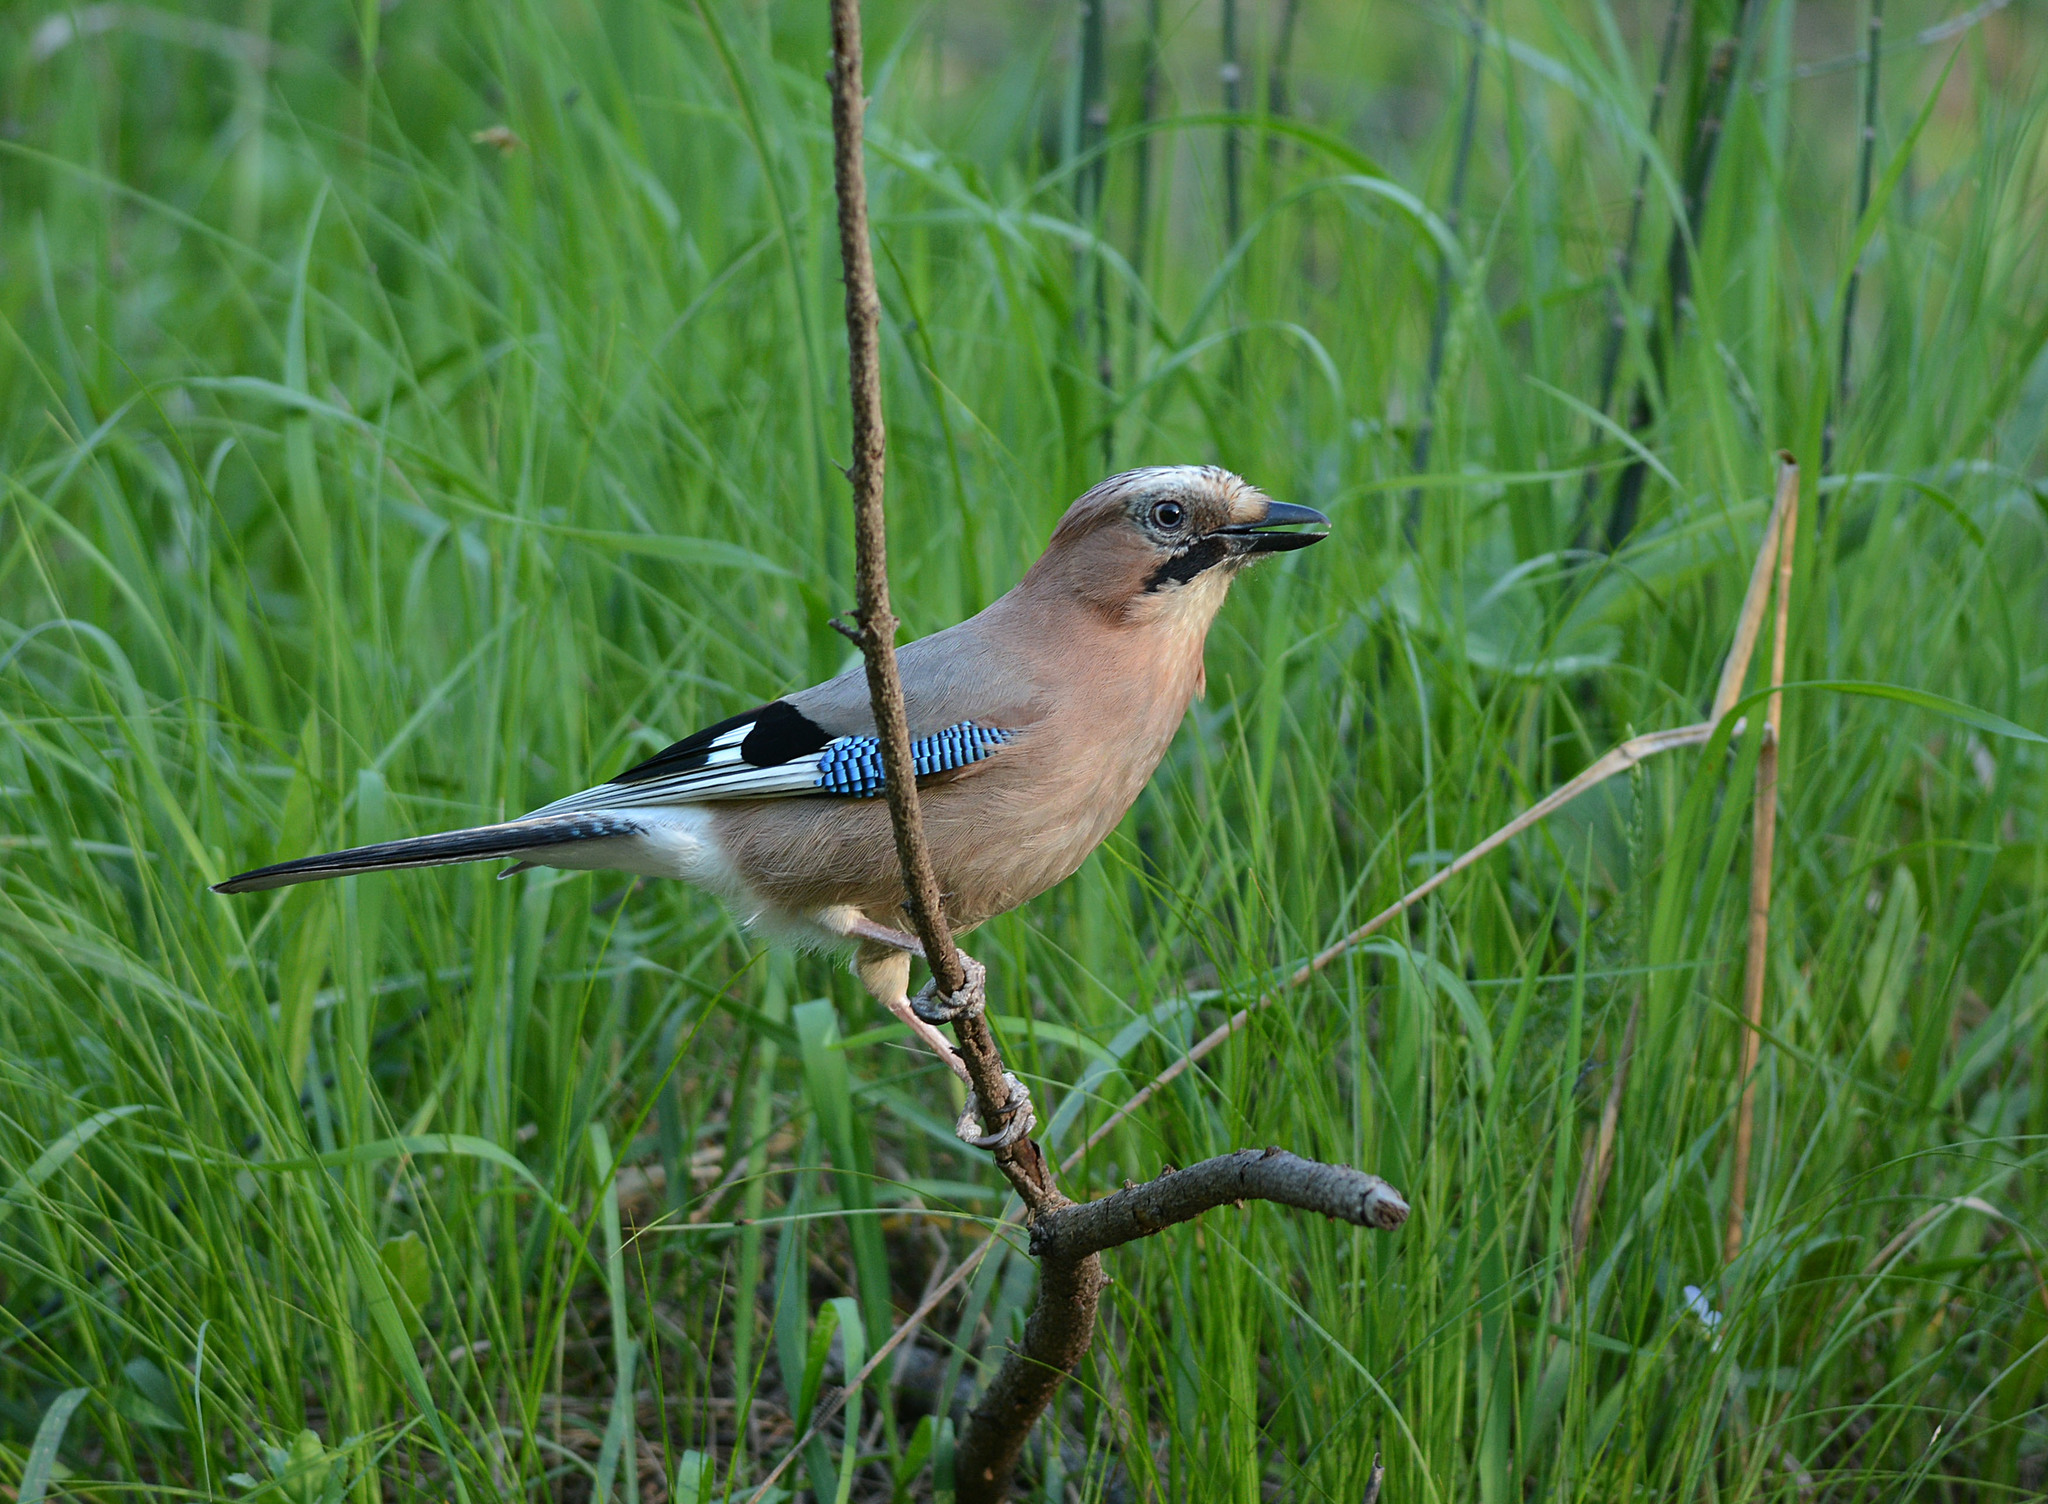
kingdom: Animalia
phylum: Chordata
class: Aves
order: Passeriformes
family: Corvidae
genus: Garrulus
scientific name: Garrulus glandarius
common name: Eurasian jay
